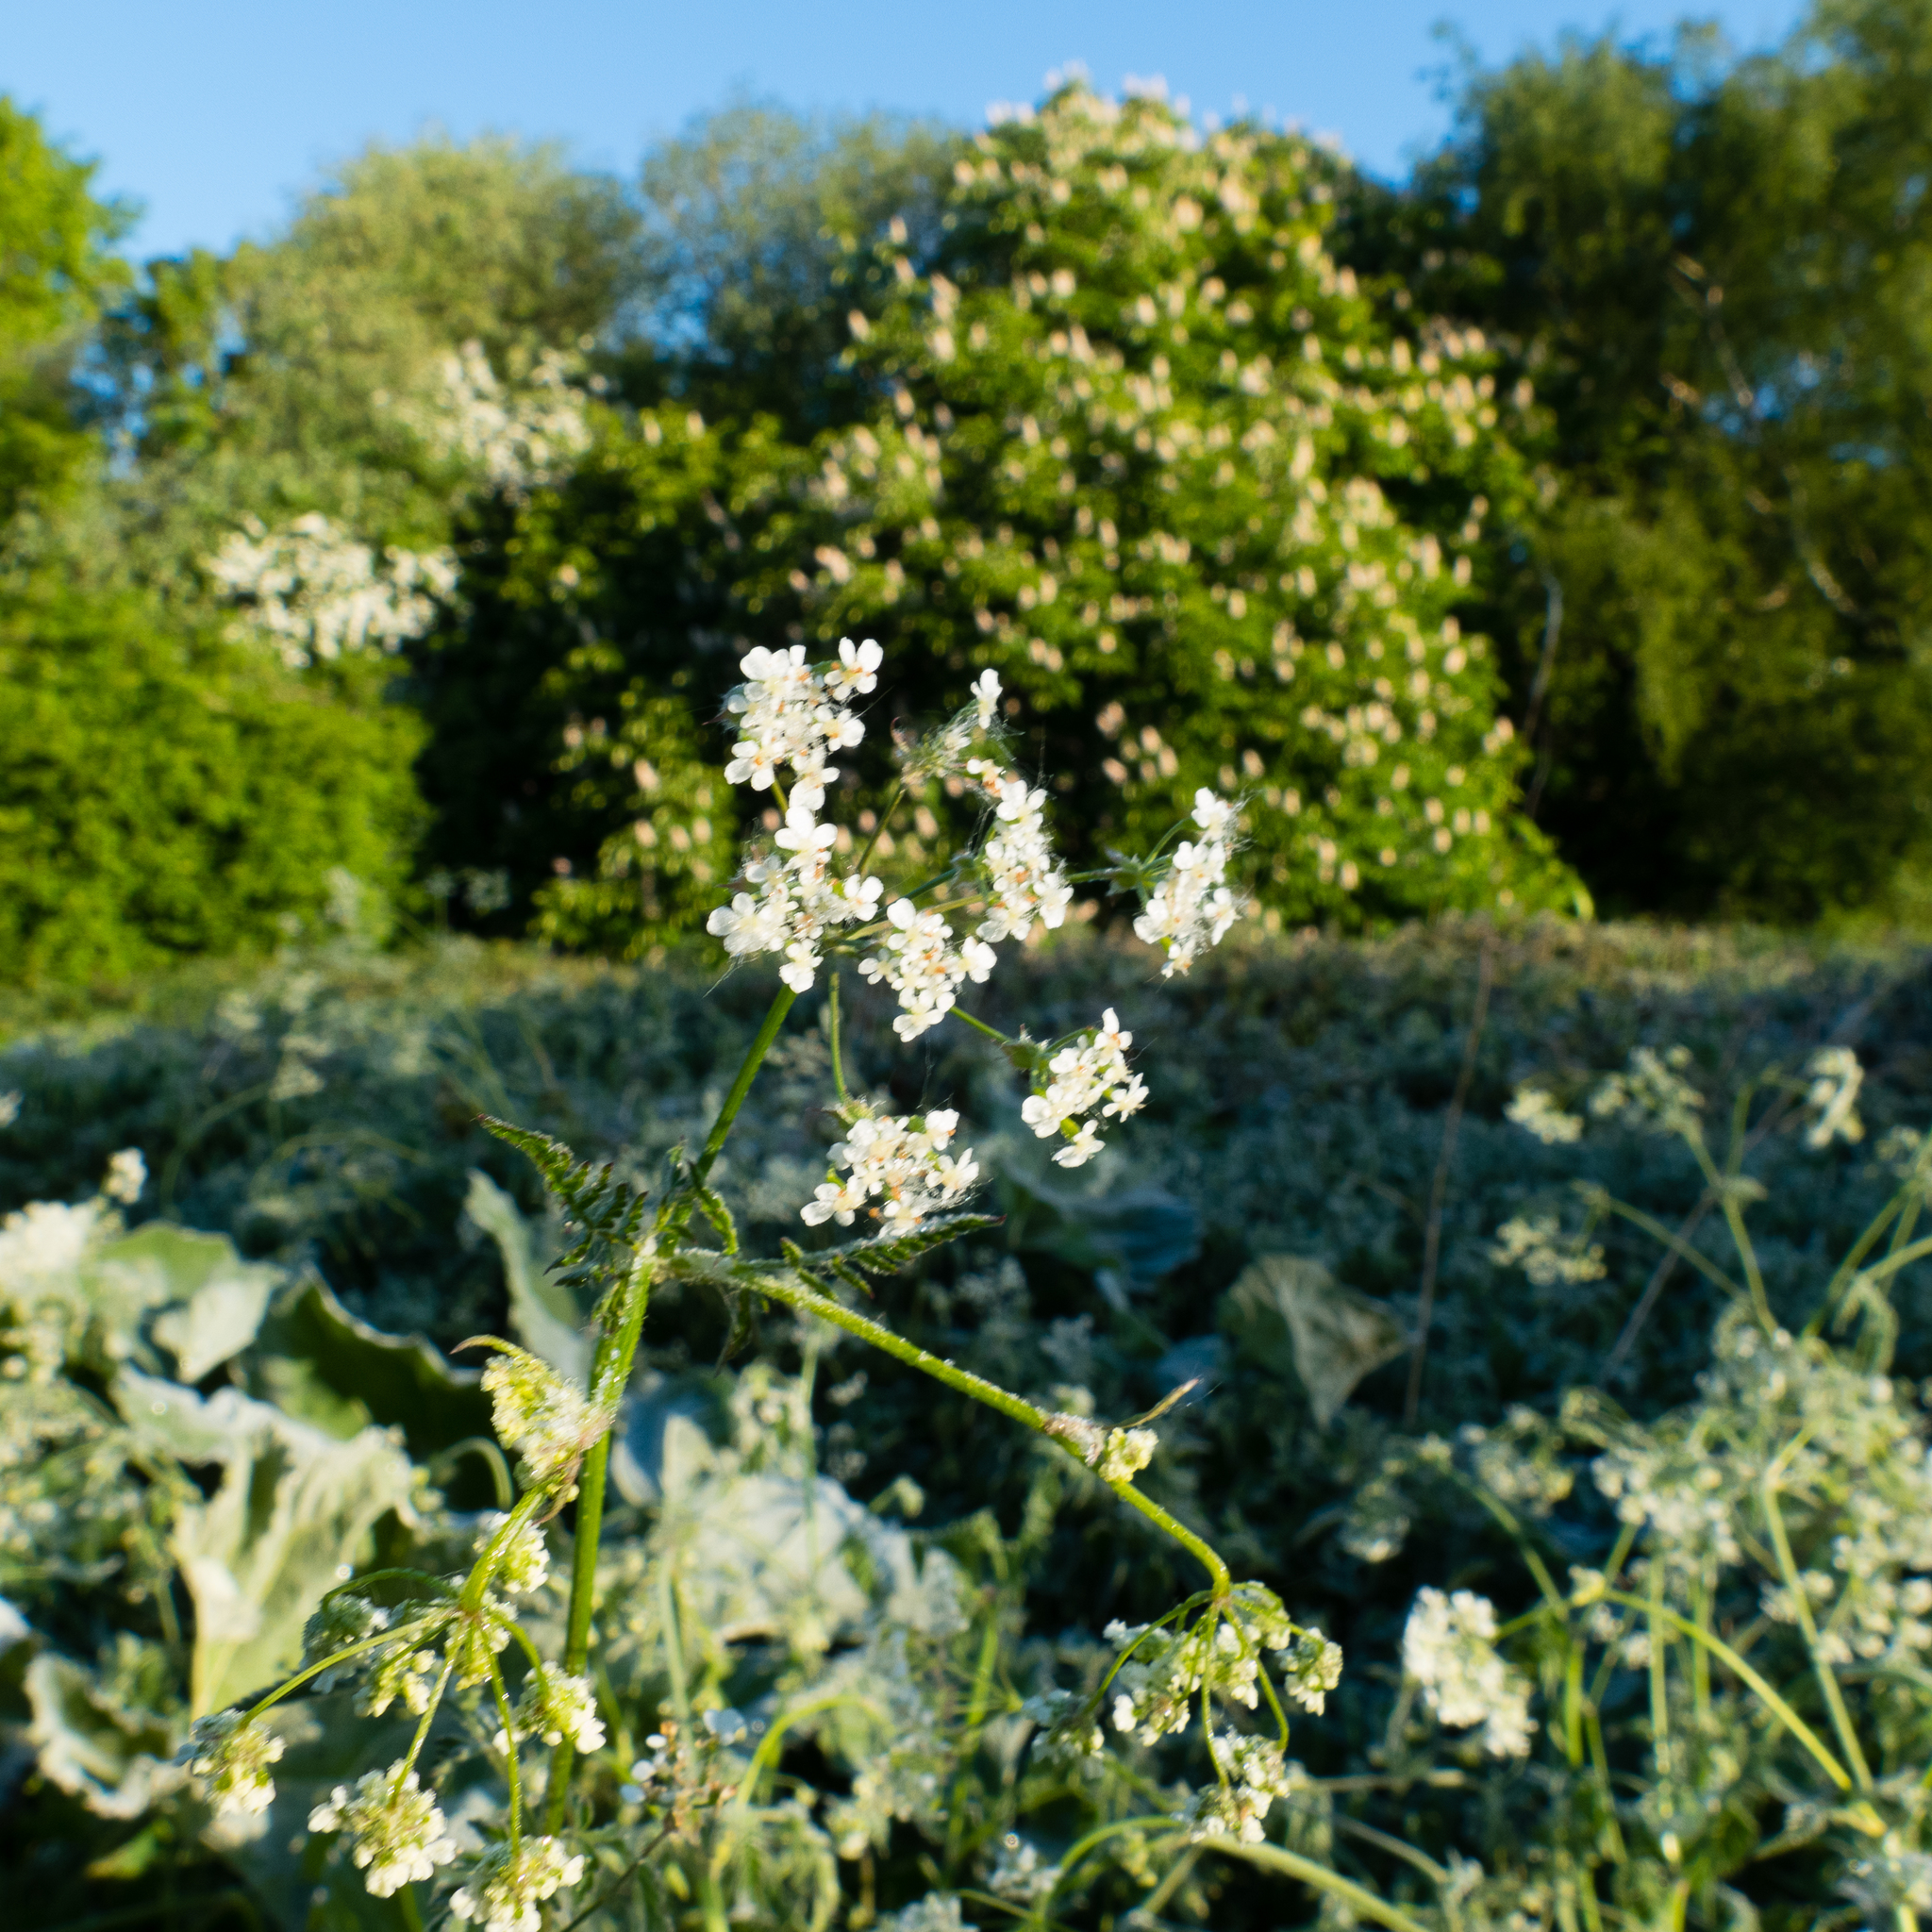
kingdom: Plantae
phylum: Tracheophyta
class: Magnoliopsida
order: Apiales
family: Apiaceae
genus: Anthriscus
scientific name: Anthriscus sylvestris
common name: Cow parsley
